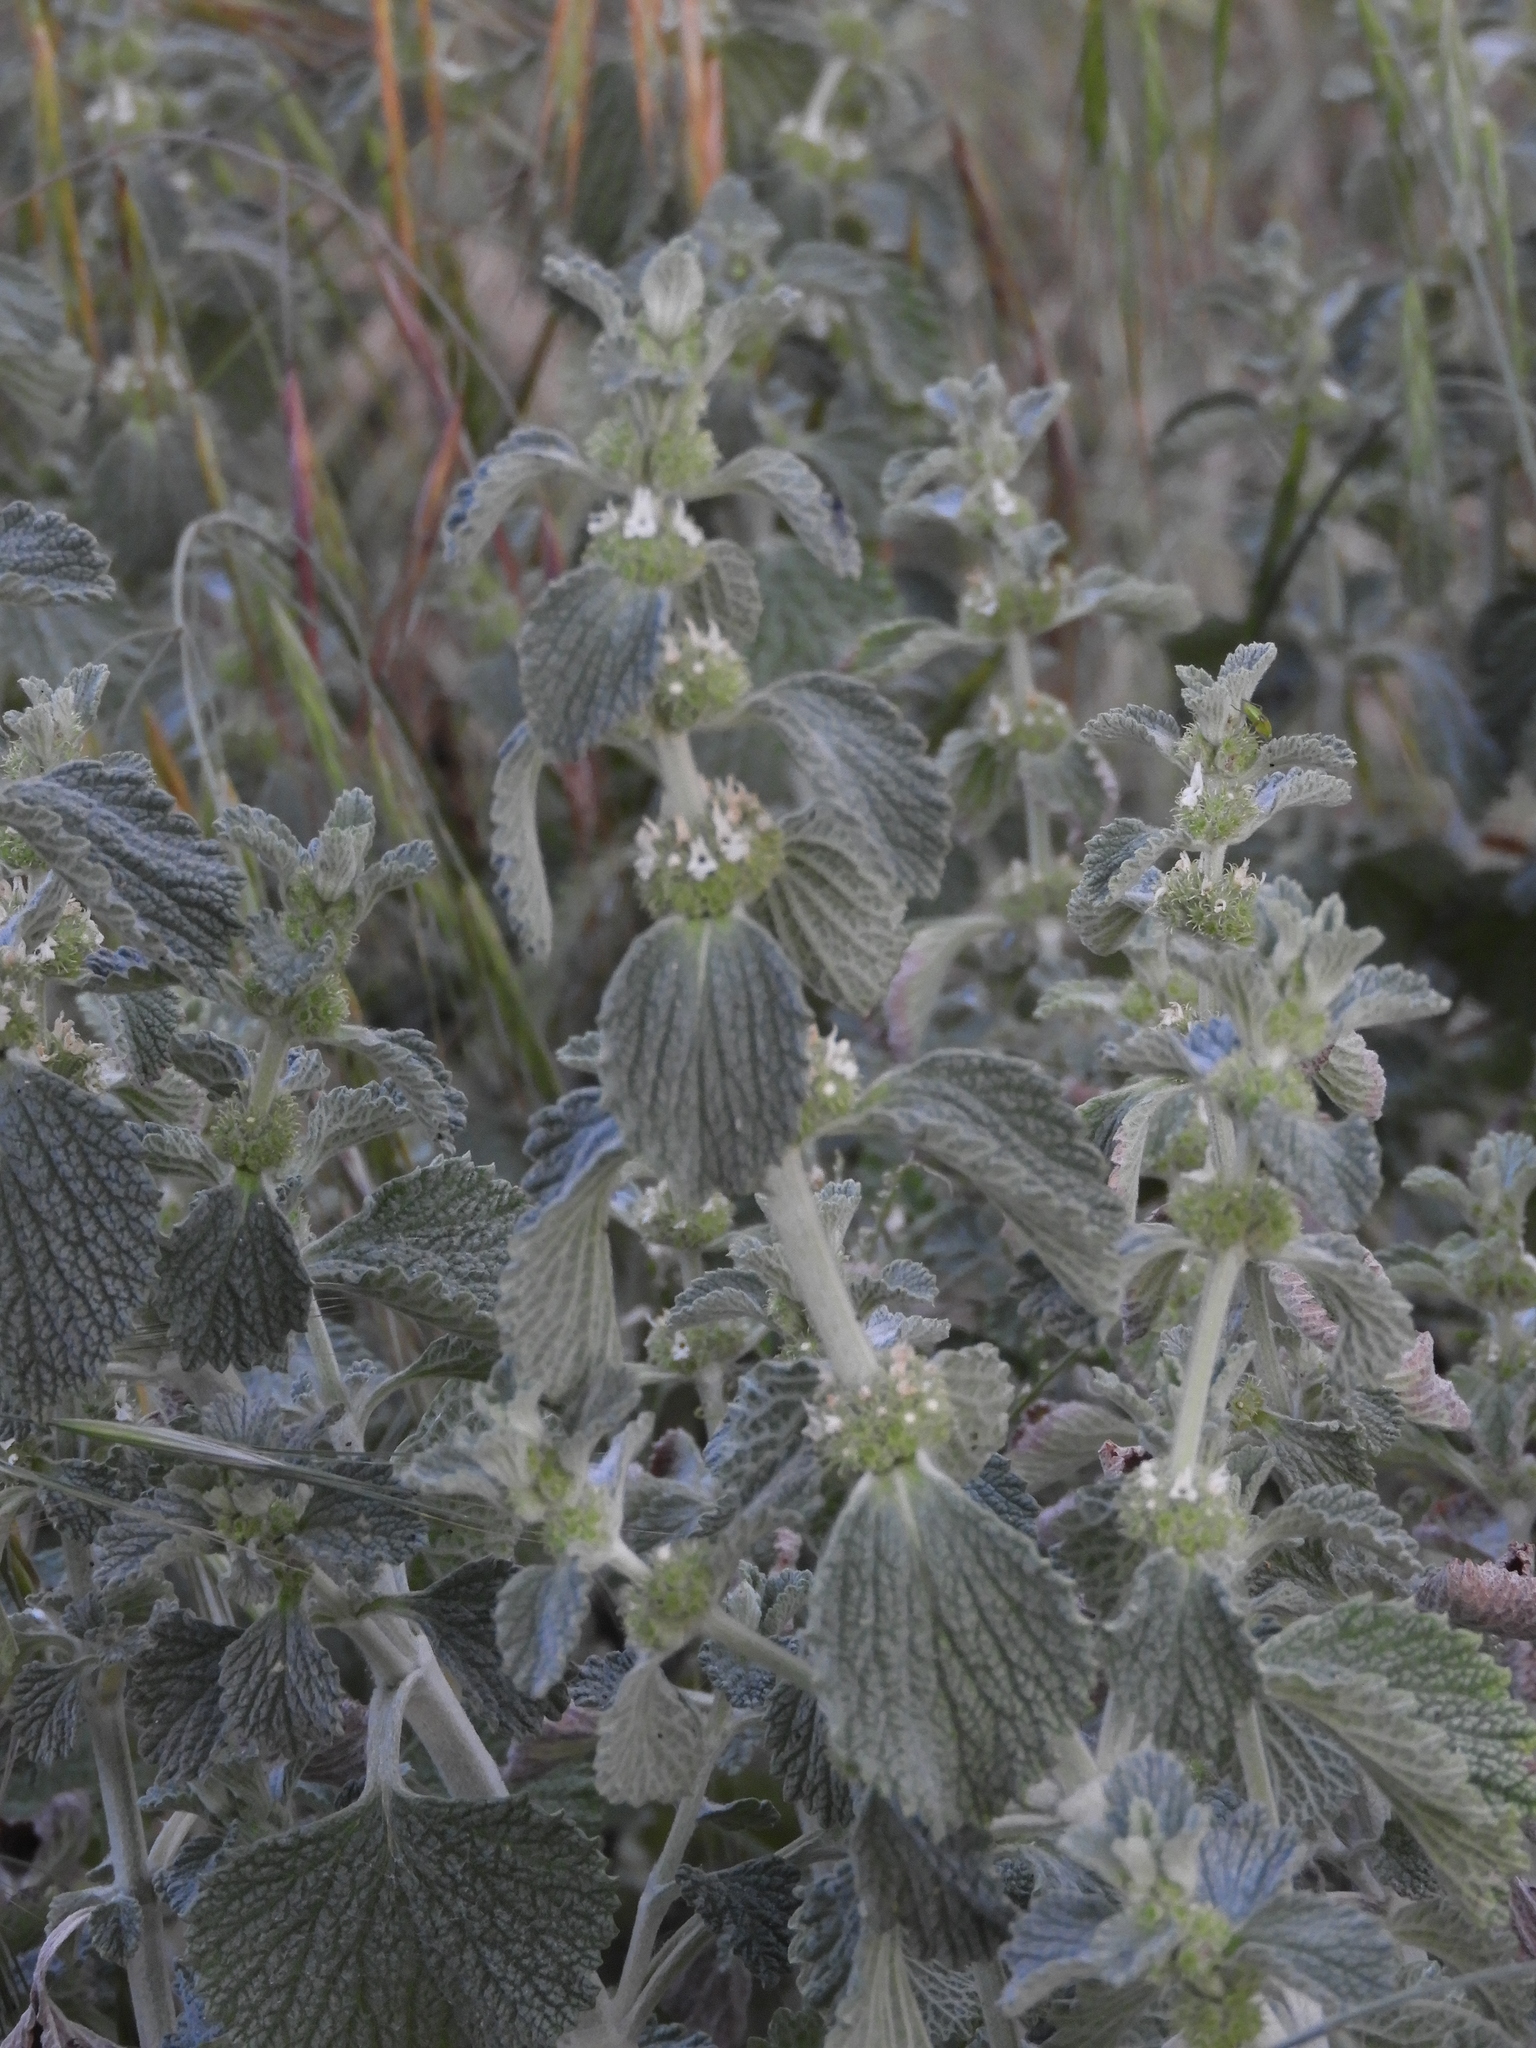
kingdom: Plantae
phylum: Tracheophyta
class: Magnoliopsida
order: Lamiales
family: Lamiaceae
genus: Marrubium
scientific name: Marrubium vulgare
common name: Horehound
